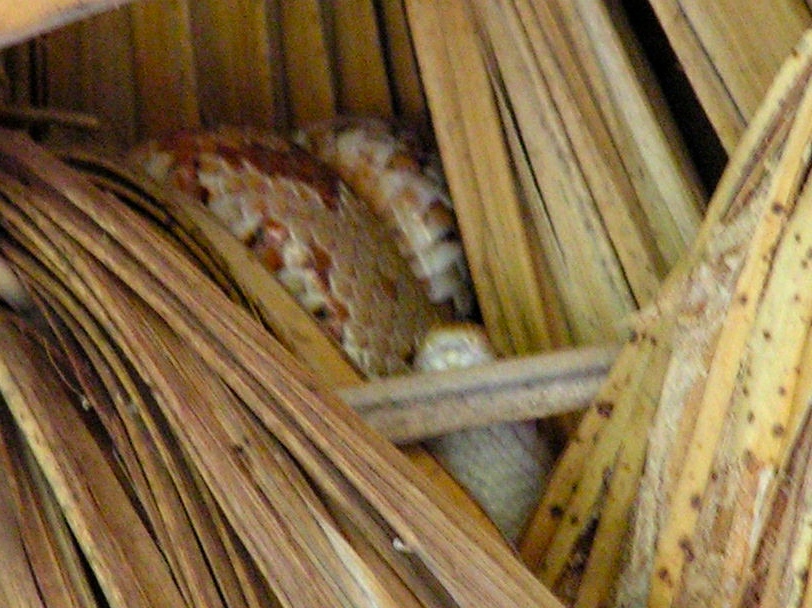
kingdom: Animalia
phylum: Chordata
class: Squamata
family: Colubridae
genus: Trimorphodon
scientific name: Trimorphodon paucimaculatus
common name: Sinaloan lyresnake
